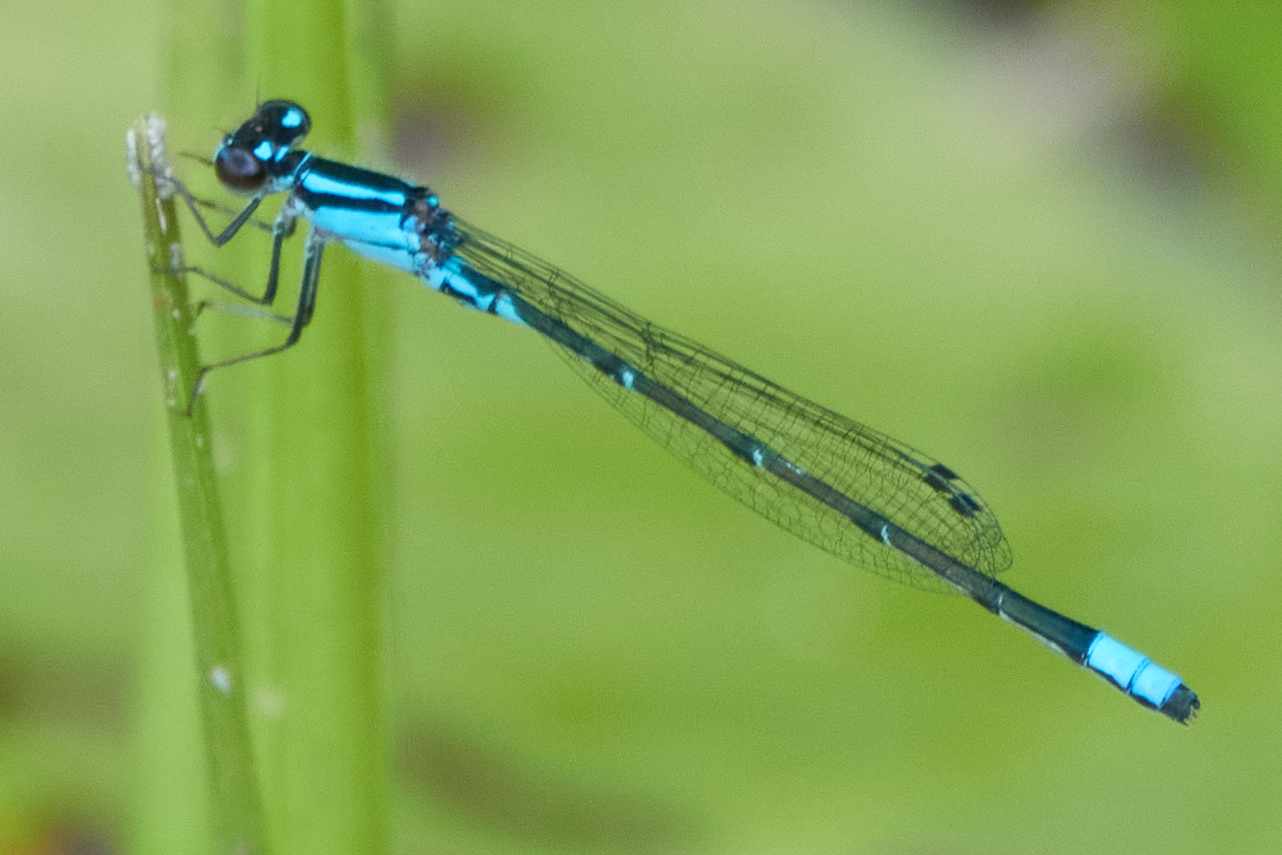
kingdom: Animalia
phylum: Arthropoda
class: Insecta
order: Odonata
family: Coenagrionidae
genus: Enallagma
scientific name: Enallagma geminatum
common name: Skimming bluet
